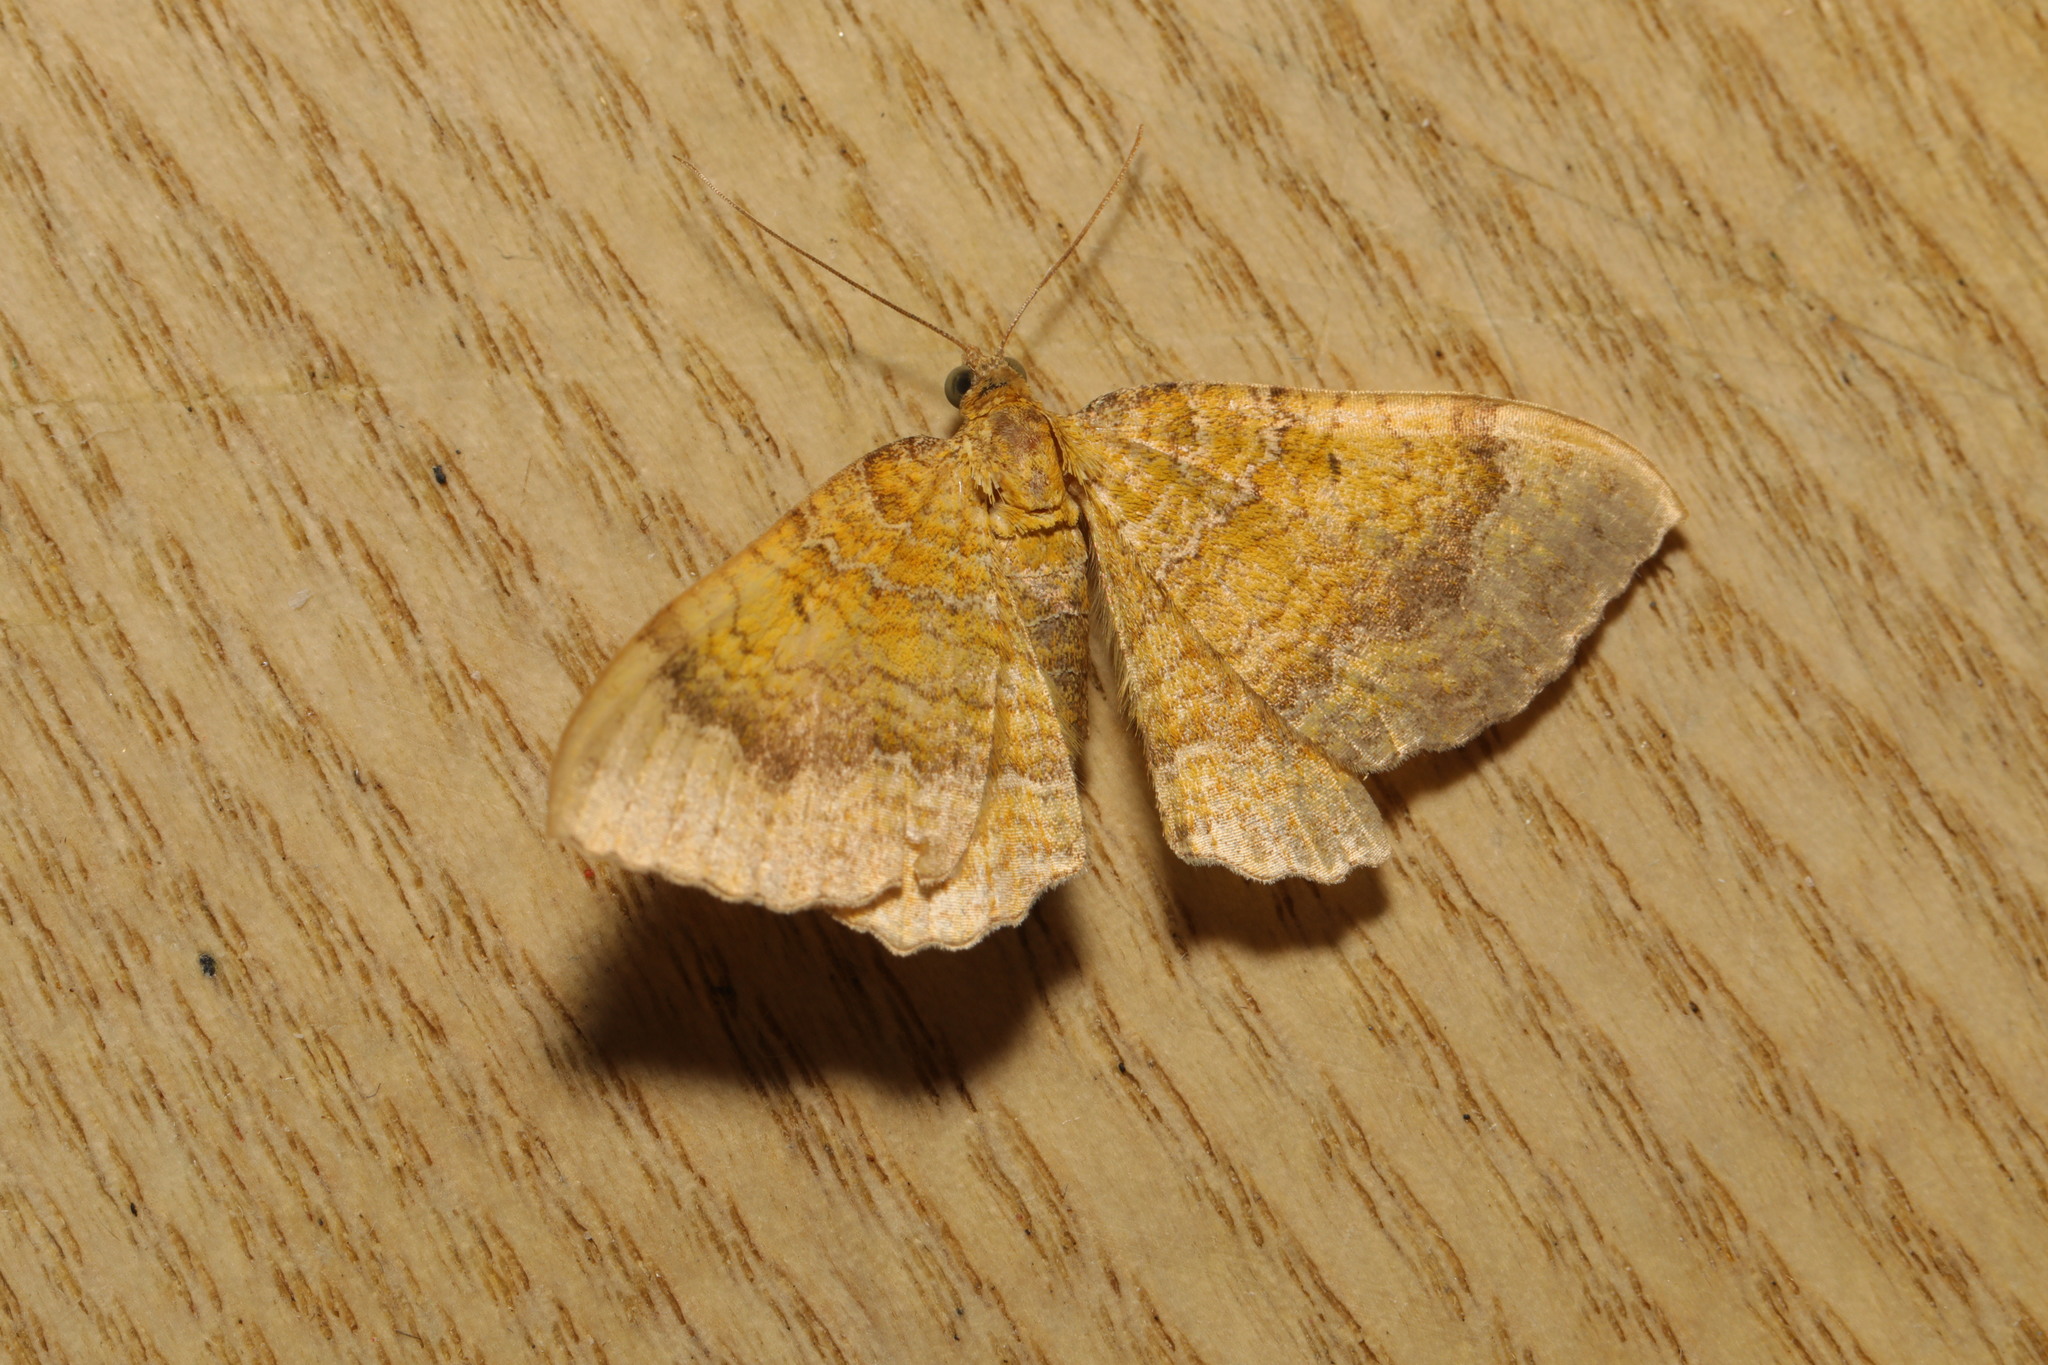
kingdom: Animalia
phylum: Arthropoda
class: Insecta
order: Lepidoptera
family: Geometridae
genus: Camptogramma
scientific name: Camptogramma bilineata
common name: Yellow shell
